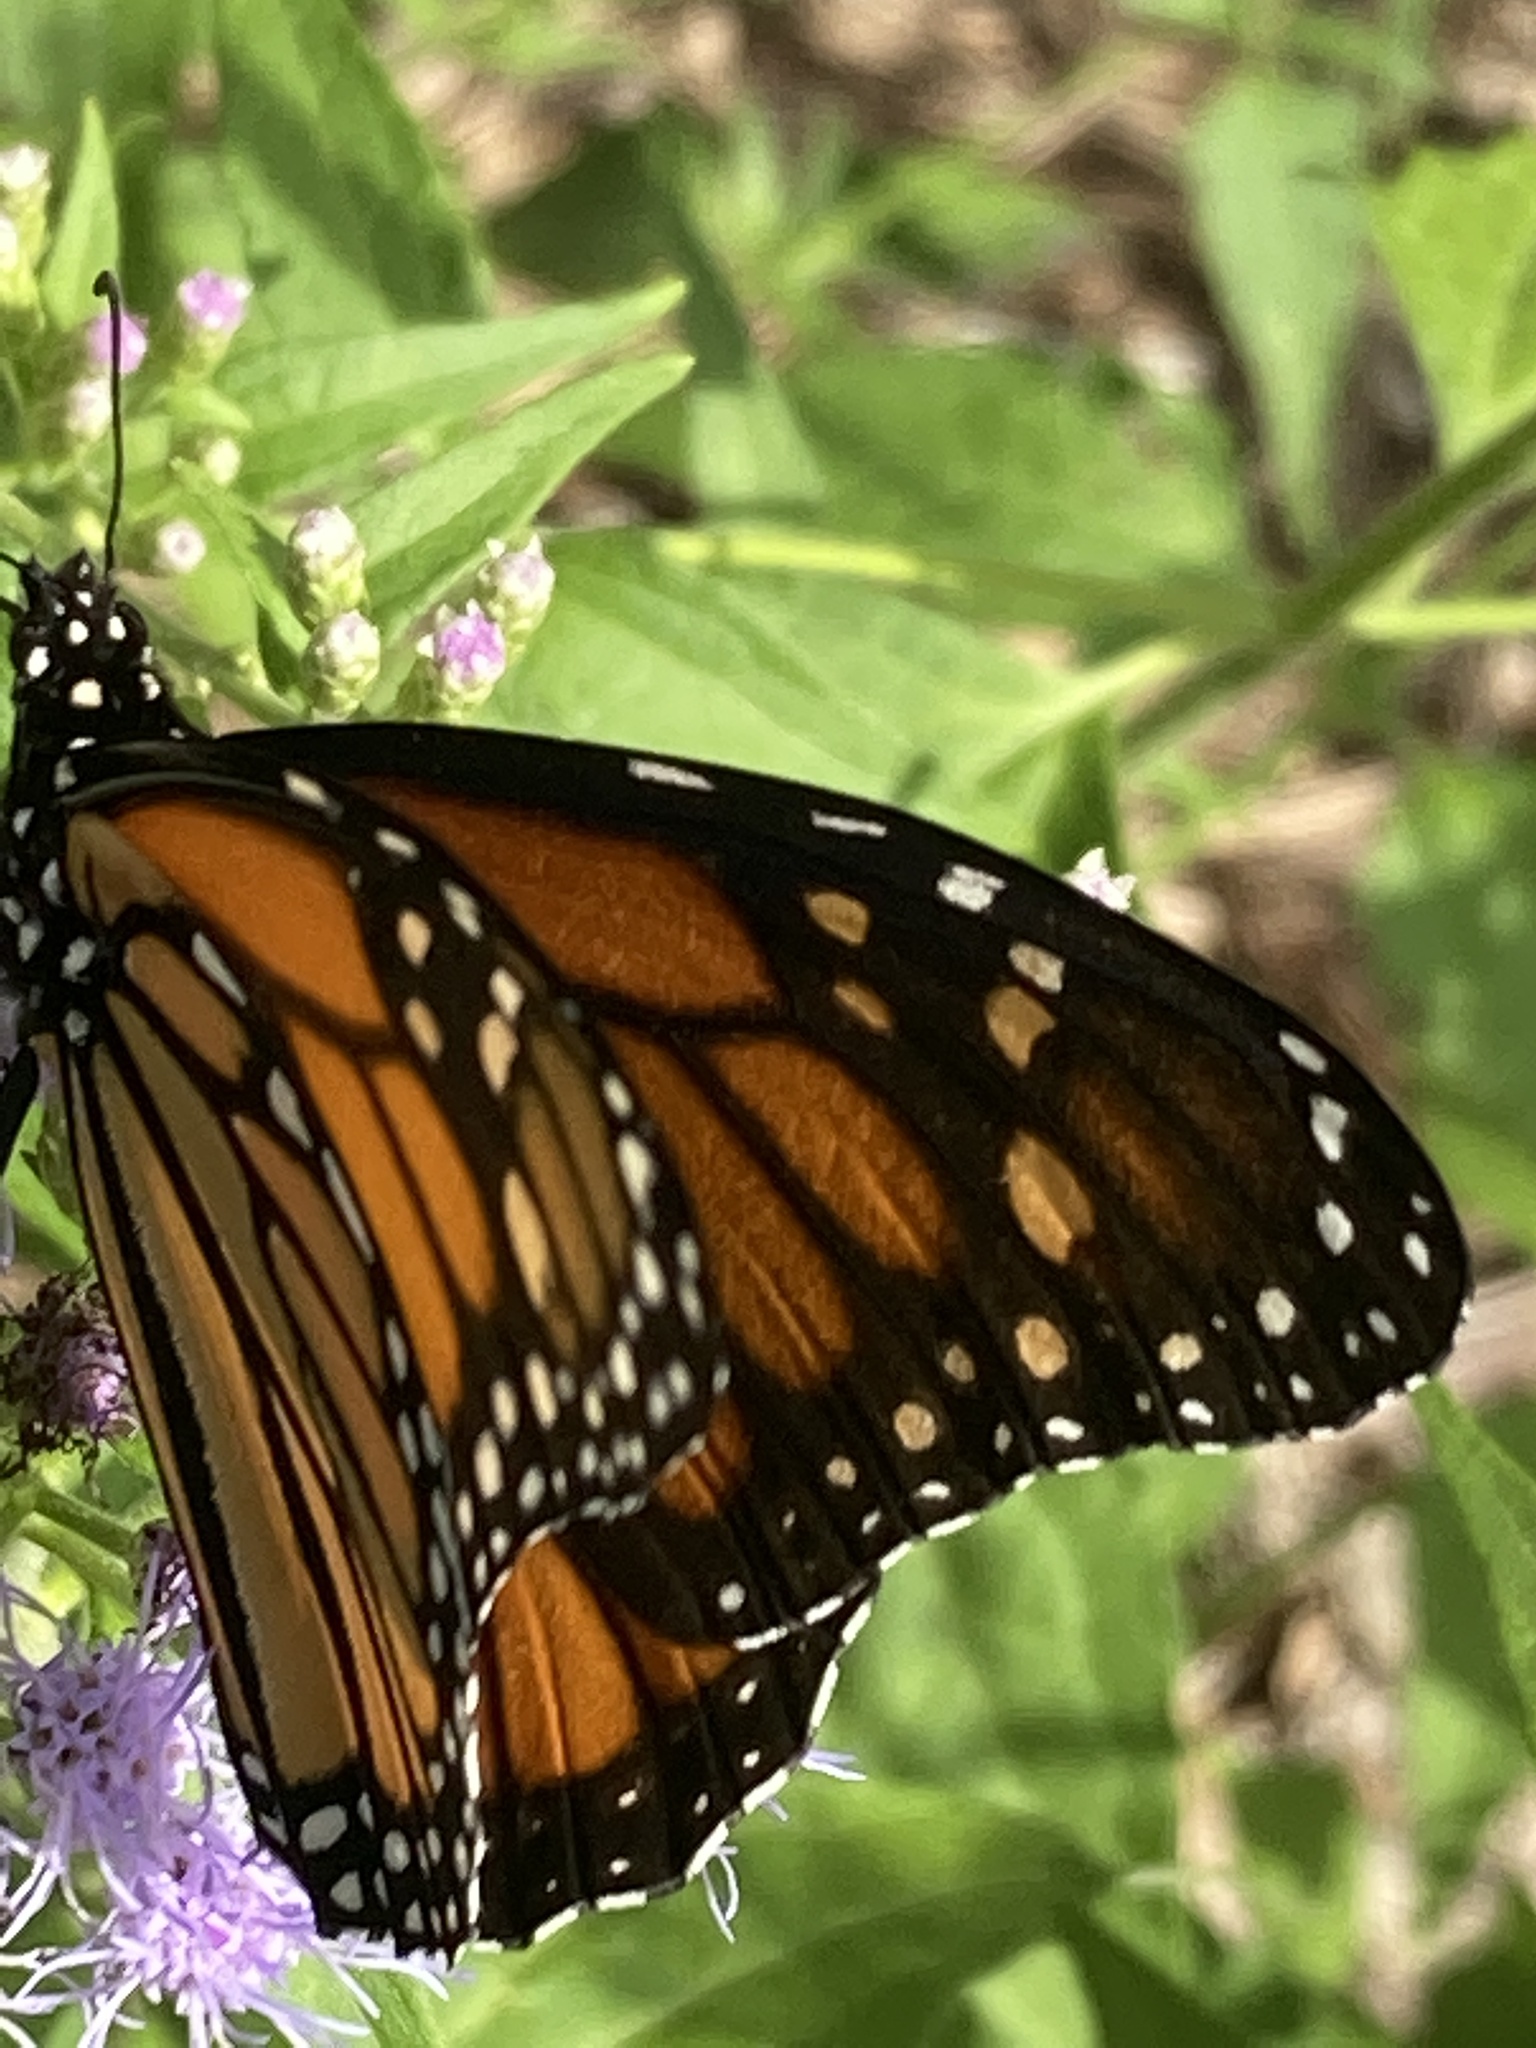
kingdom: Animalia
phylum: Arthropoda
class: Insecta
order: Lepidoptera
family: Nymphalidae
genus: Danaus
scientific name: Danaus plexippus
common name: Monarch
